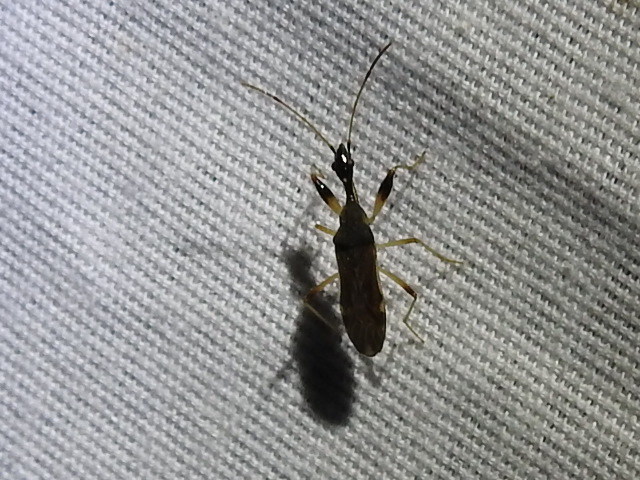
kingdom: Animalia
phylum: Arthropoda
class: Insecta
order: Hemiptera
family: Rhyparochromidae
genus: Myodocha
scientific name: Myodocha serripes
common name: Long-necked seed bug
